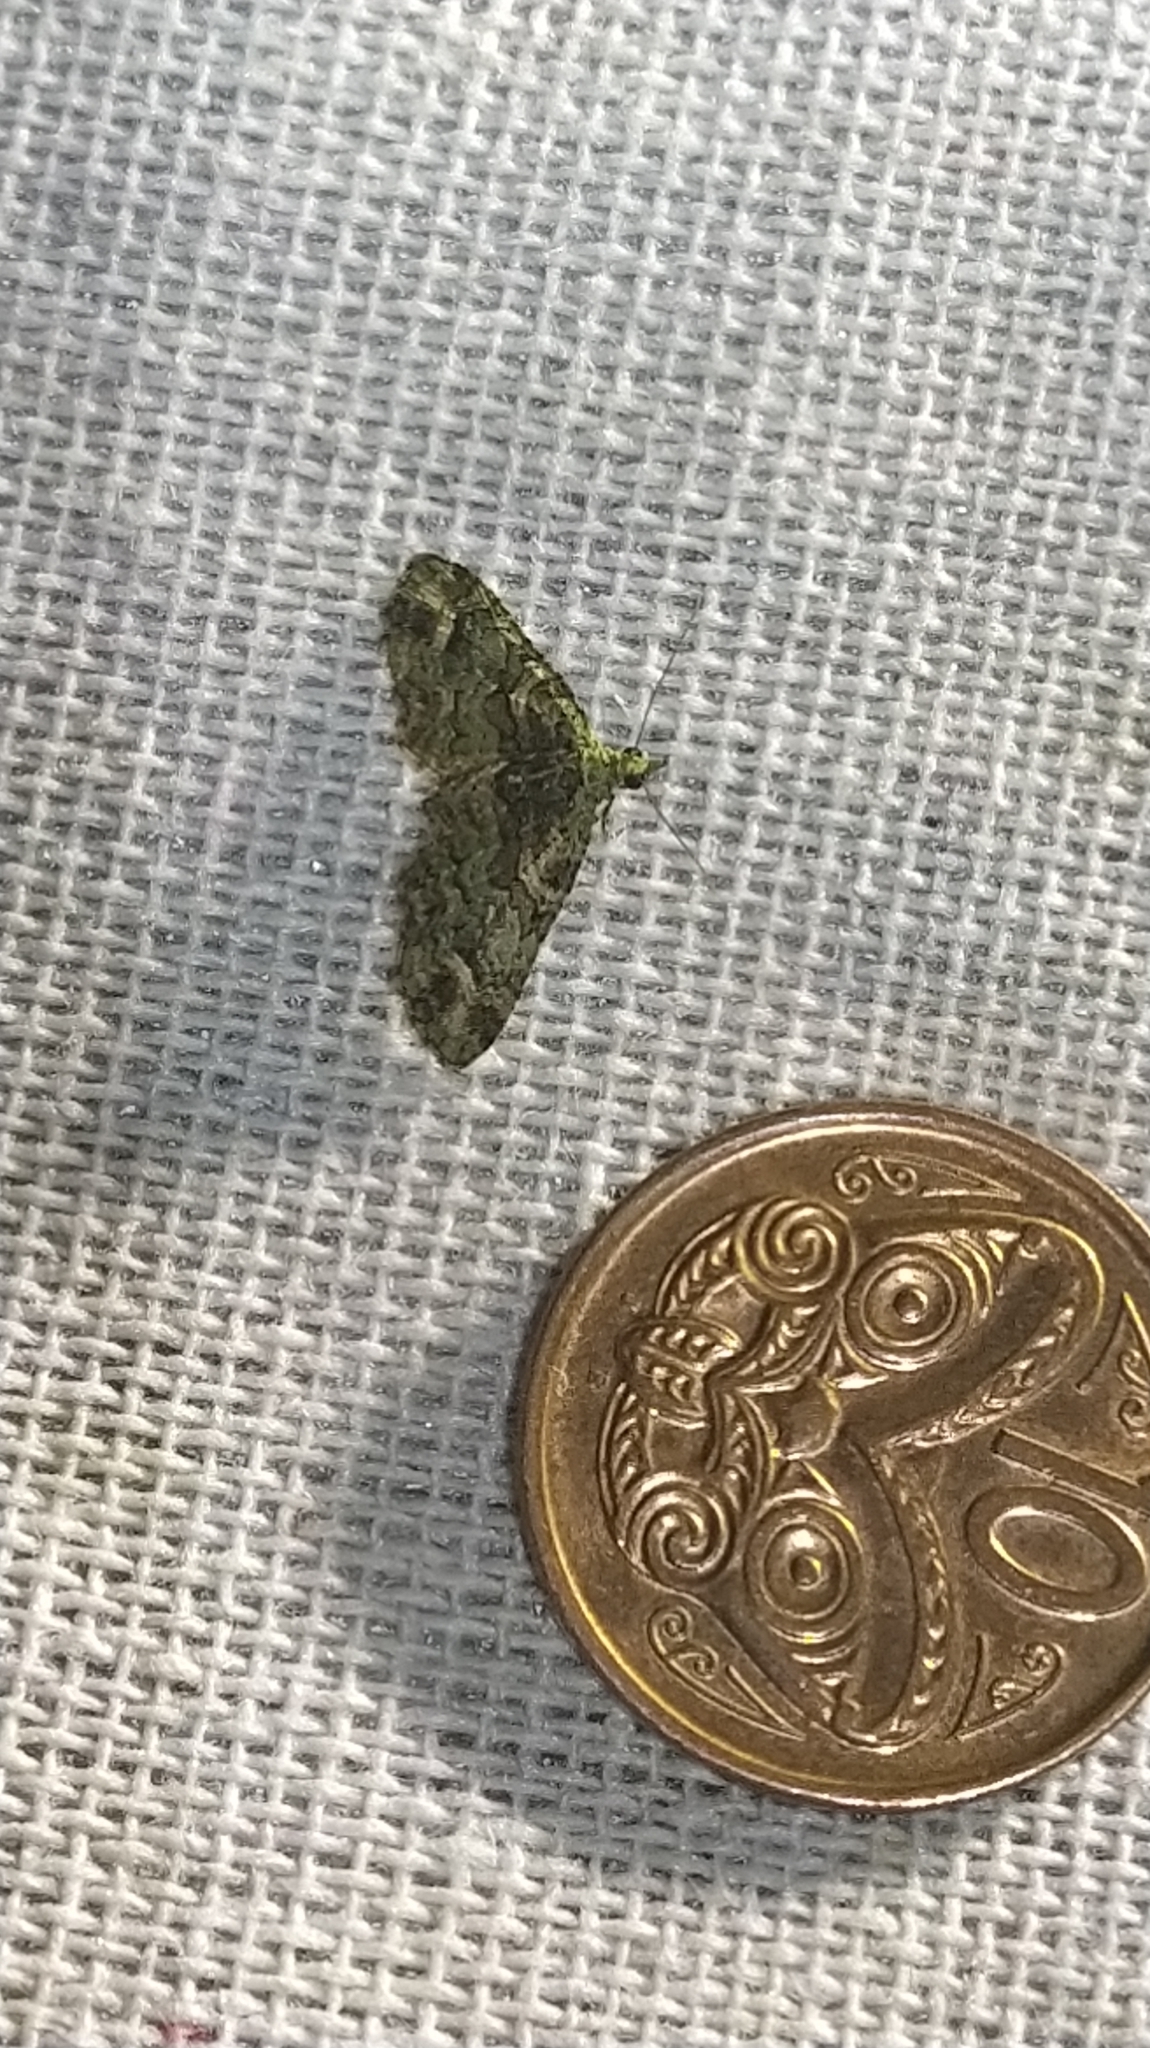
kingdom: Animalia
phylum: Arthropoda
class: Insecta
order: Lepidoptera
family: Geometridae
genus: Idaea
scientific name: Idaea mutanda
